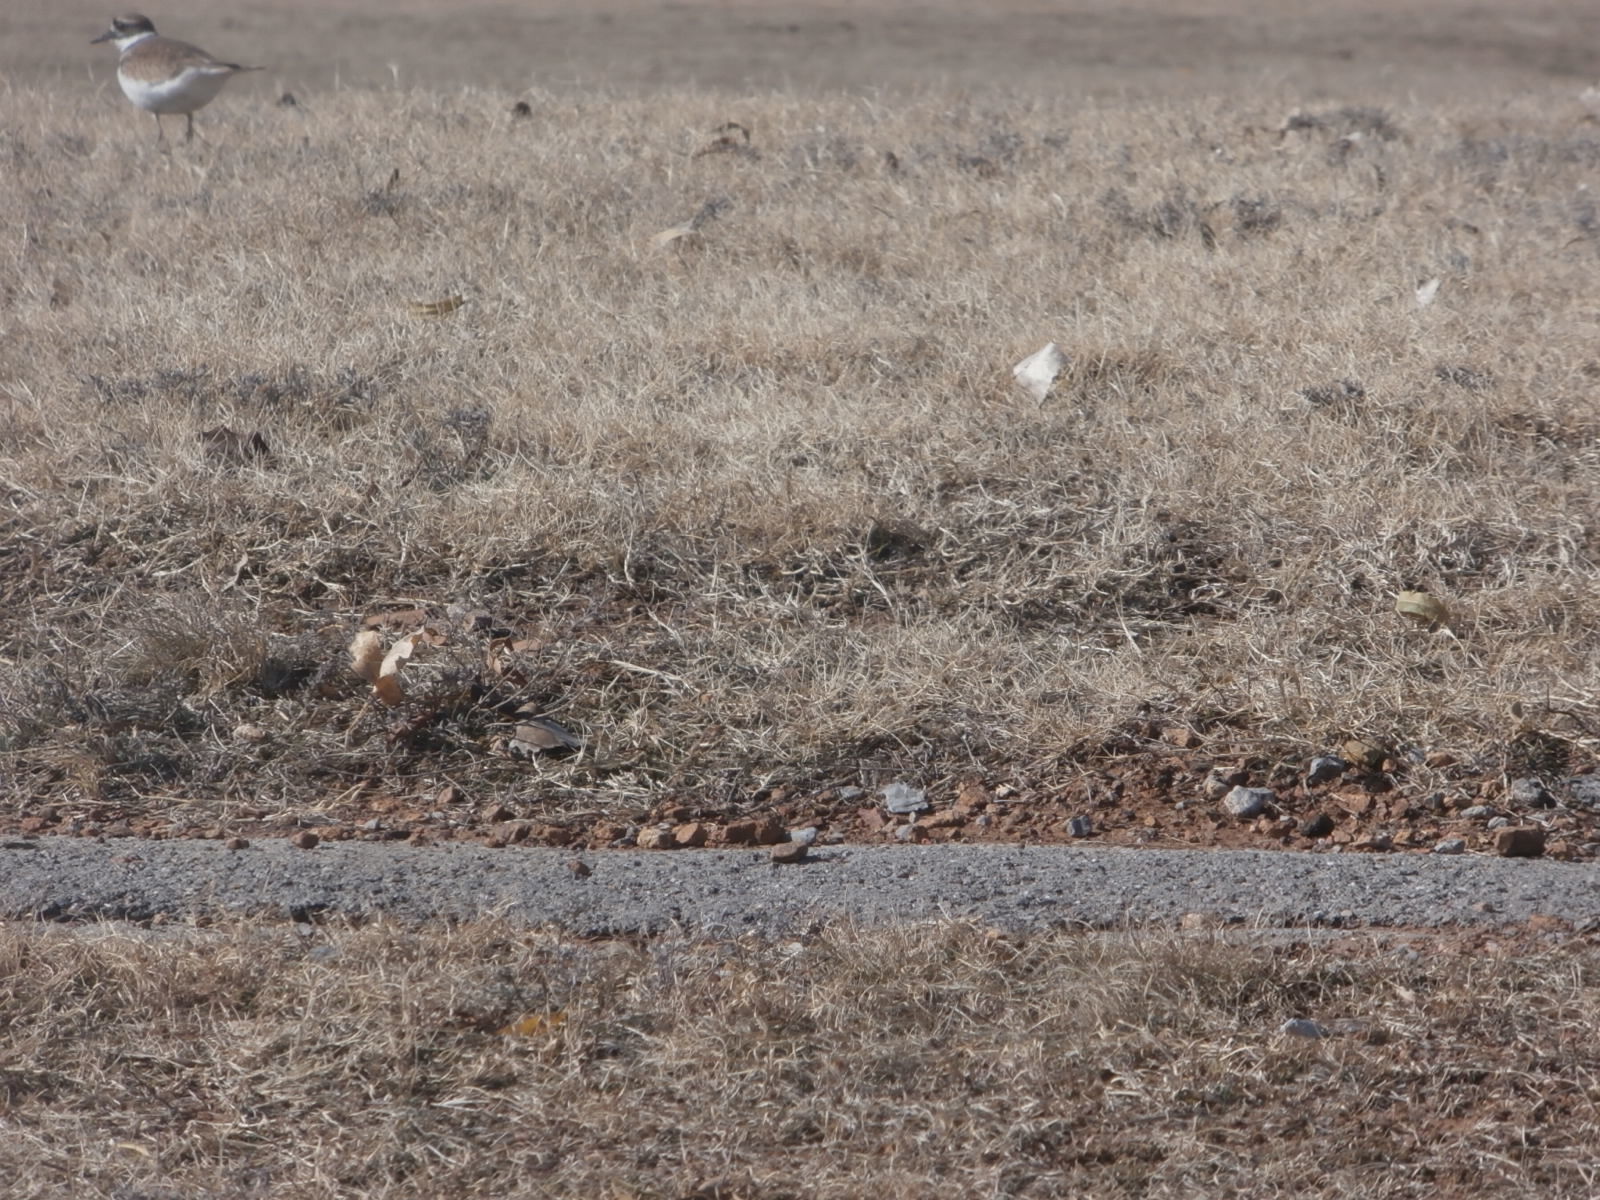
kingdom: Animalia
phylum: Chordata
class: Aves
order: Charadriiformes
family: Charadriidae
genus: Charadrius
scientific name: Charadrius vociferus
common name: Killdeer
